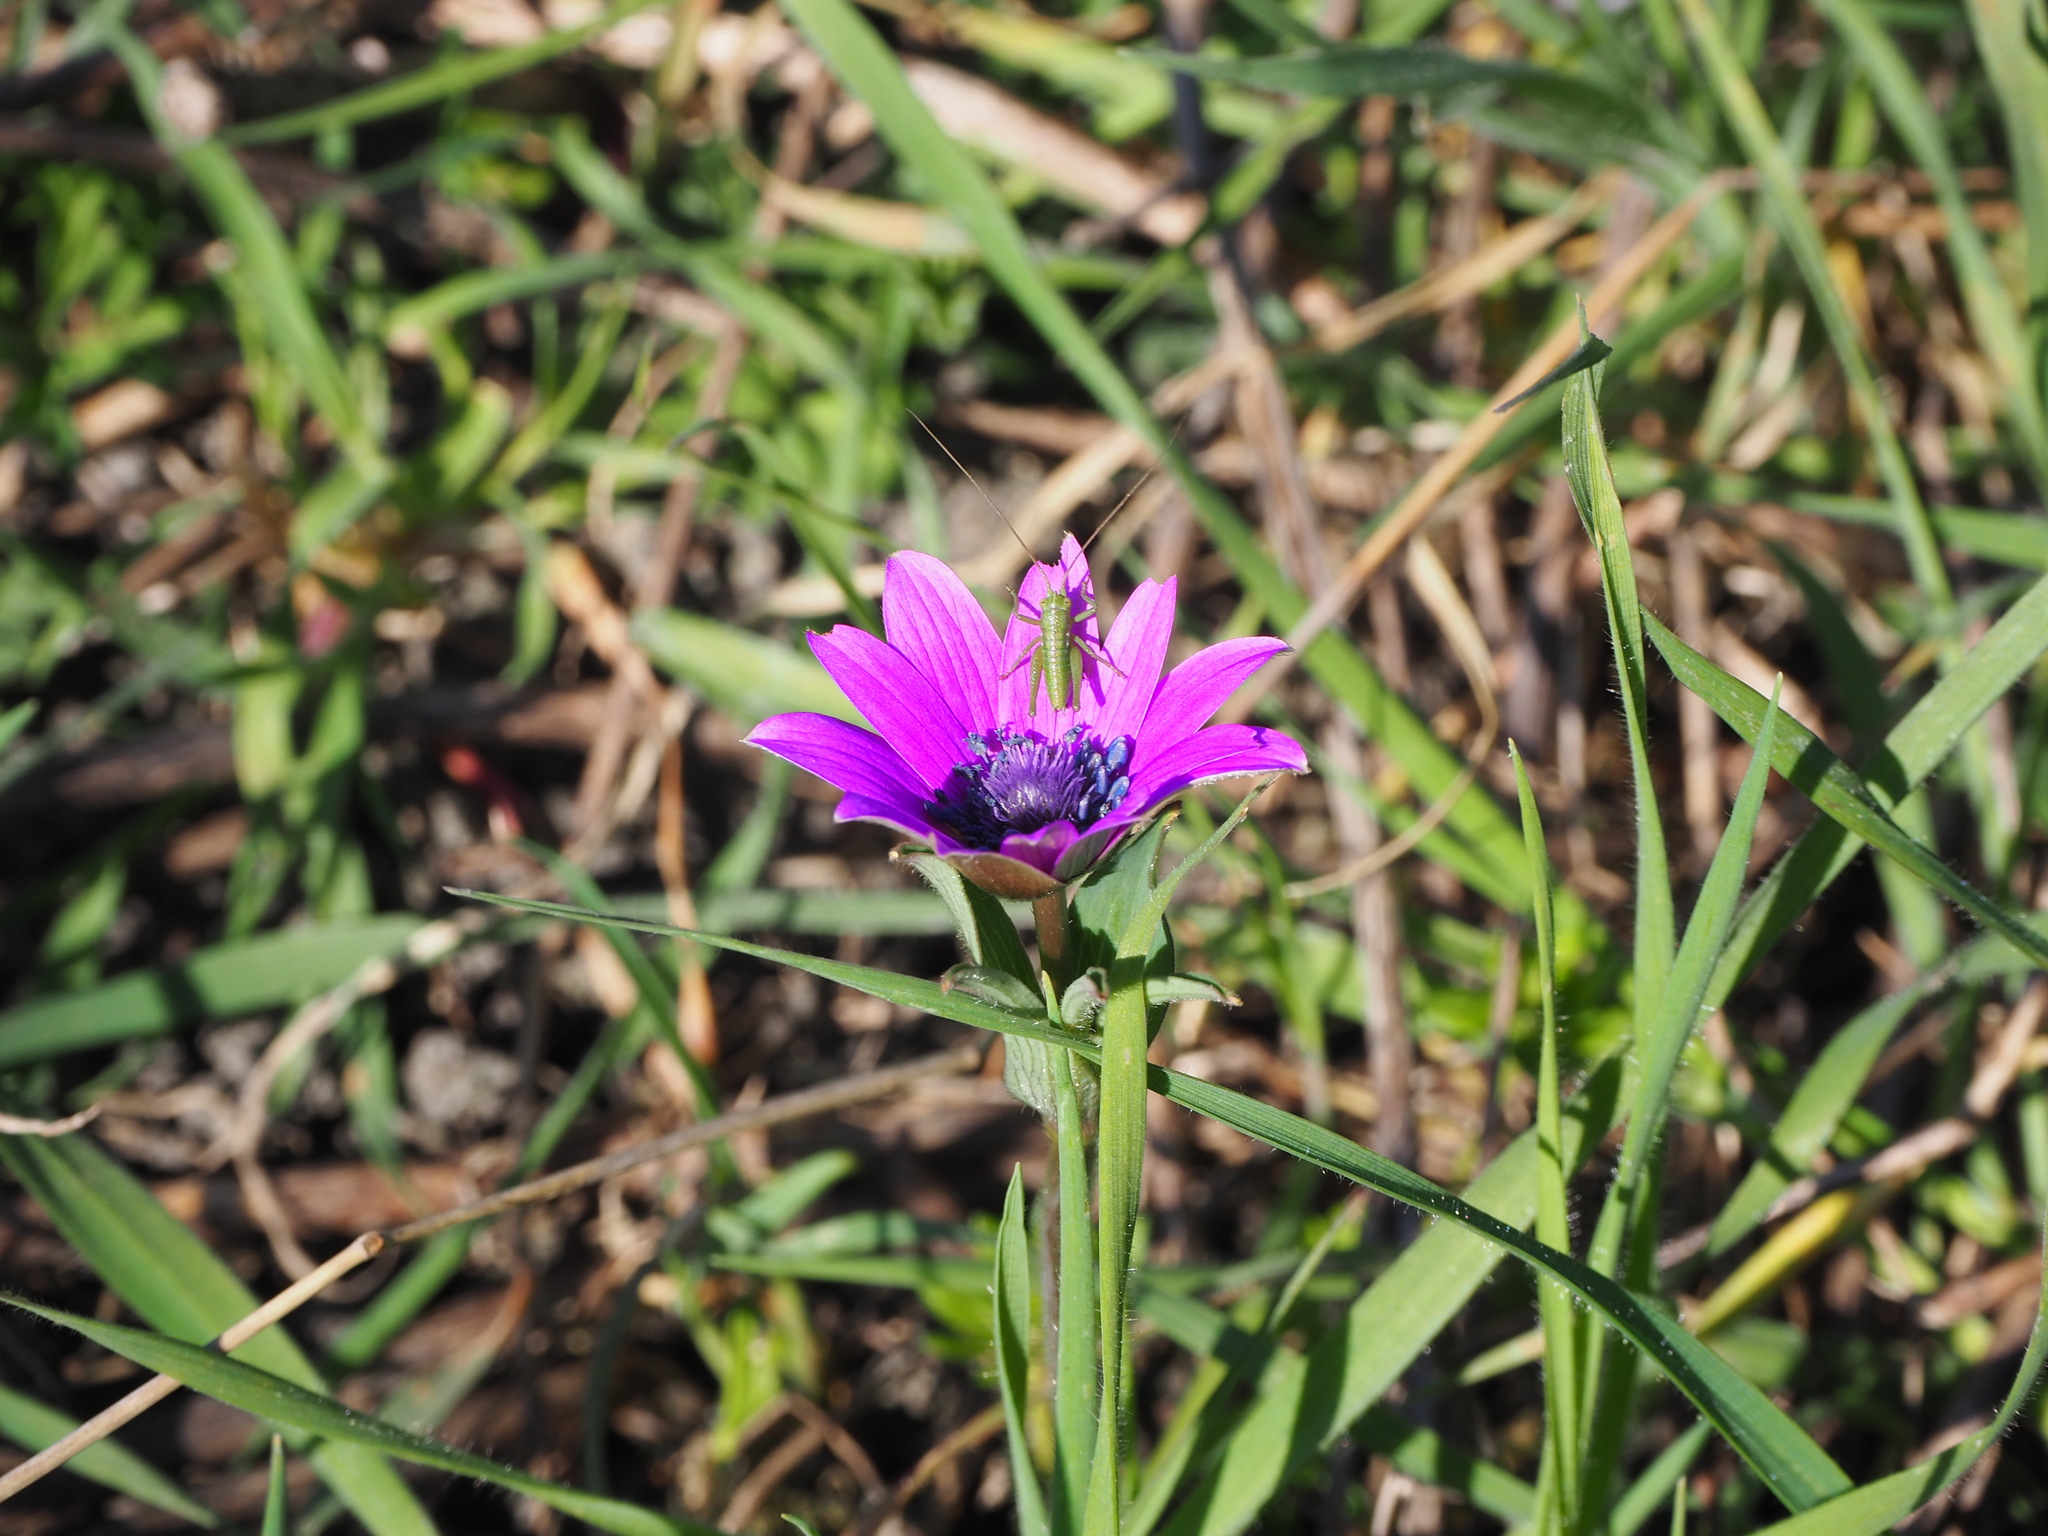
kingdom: Animalia
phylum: Arthropoda
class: Insecta
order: Orthoptera
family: Tettigoniidae
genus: Tettigonia
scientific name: Tettigonia viridissima
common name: Great green bush-cricket
